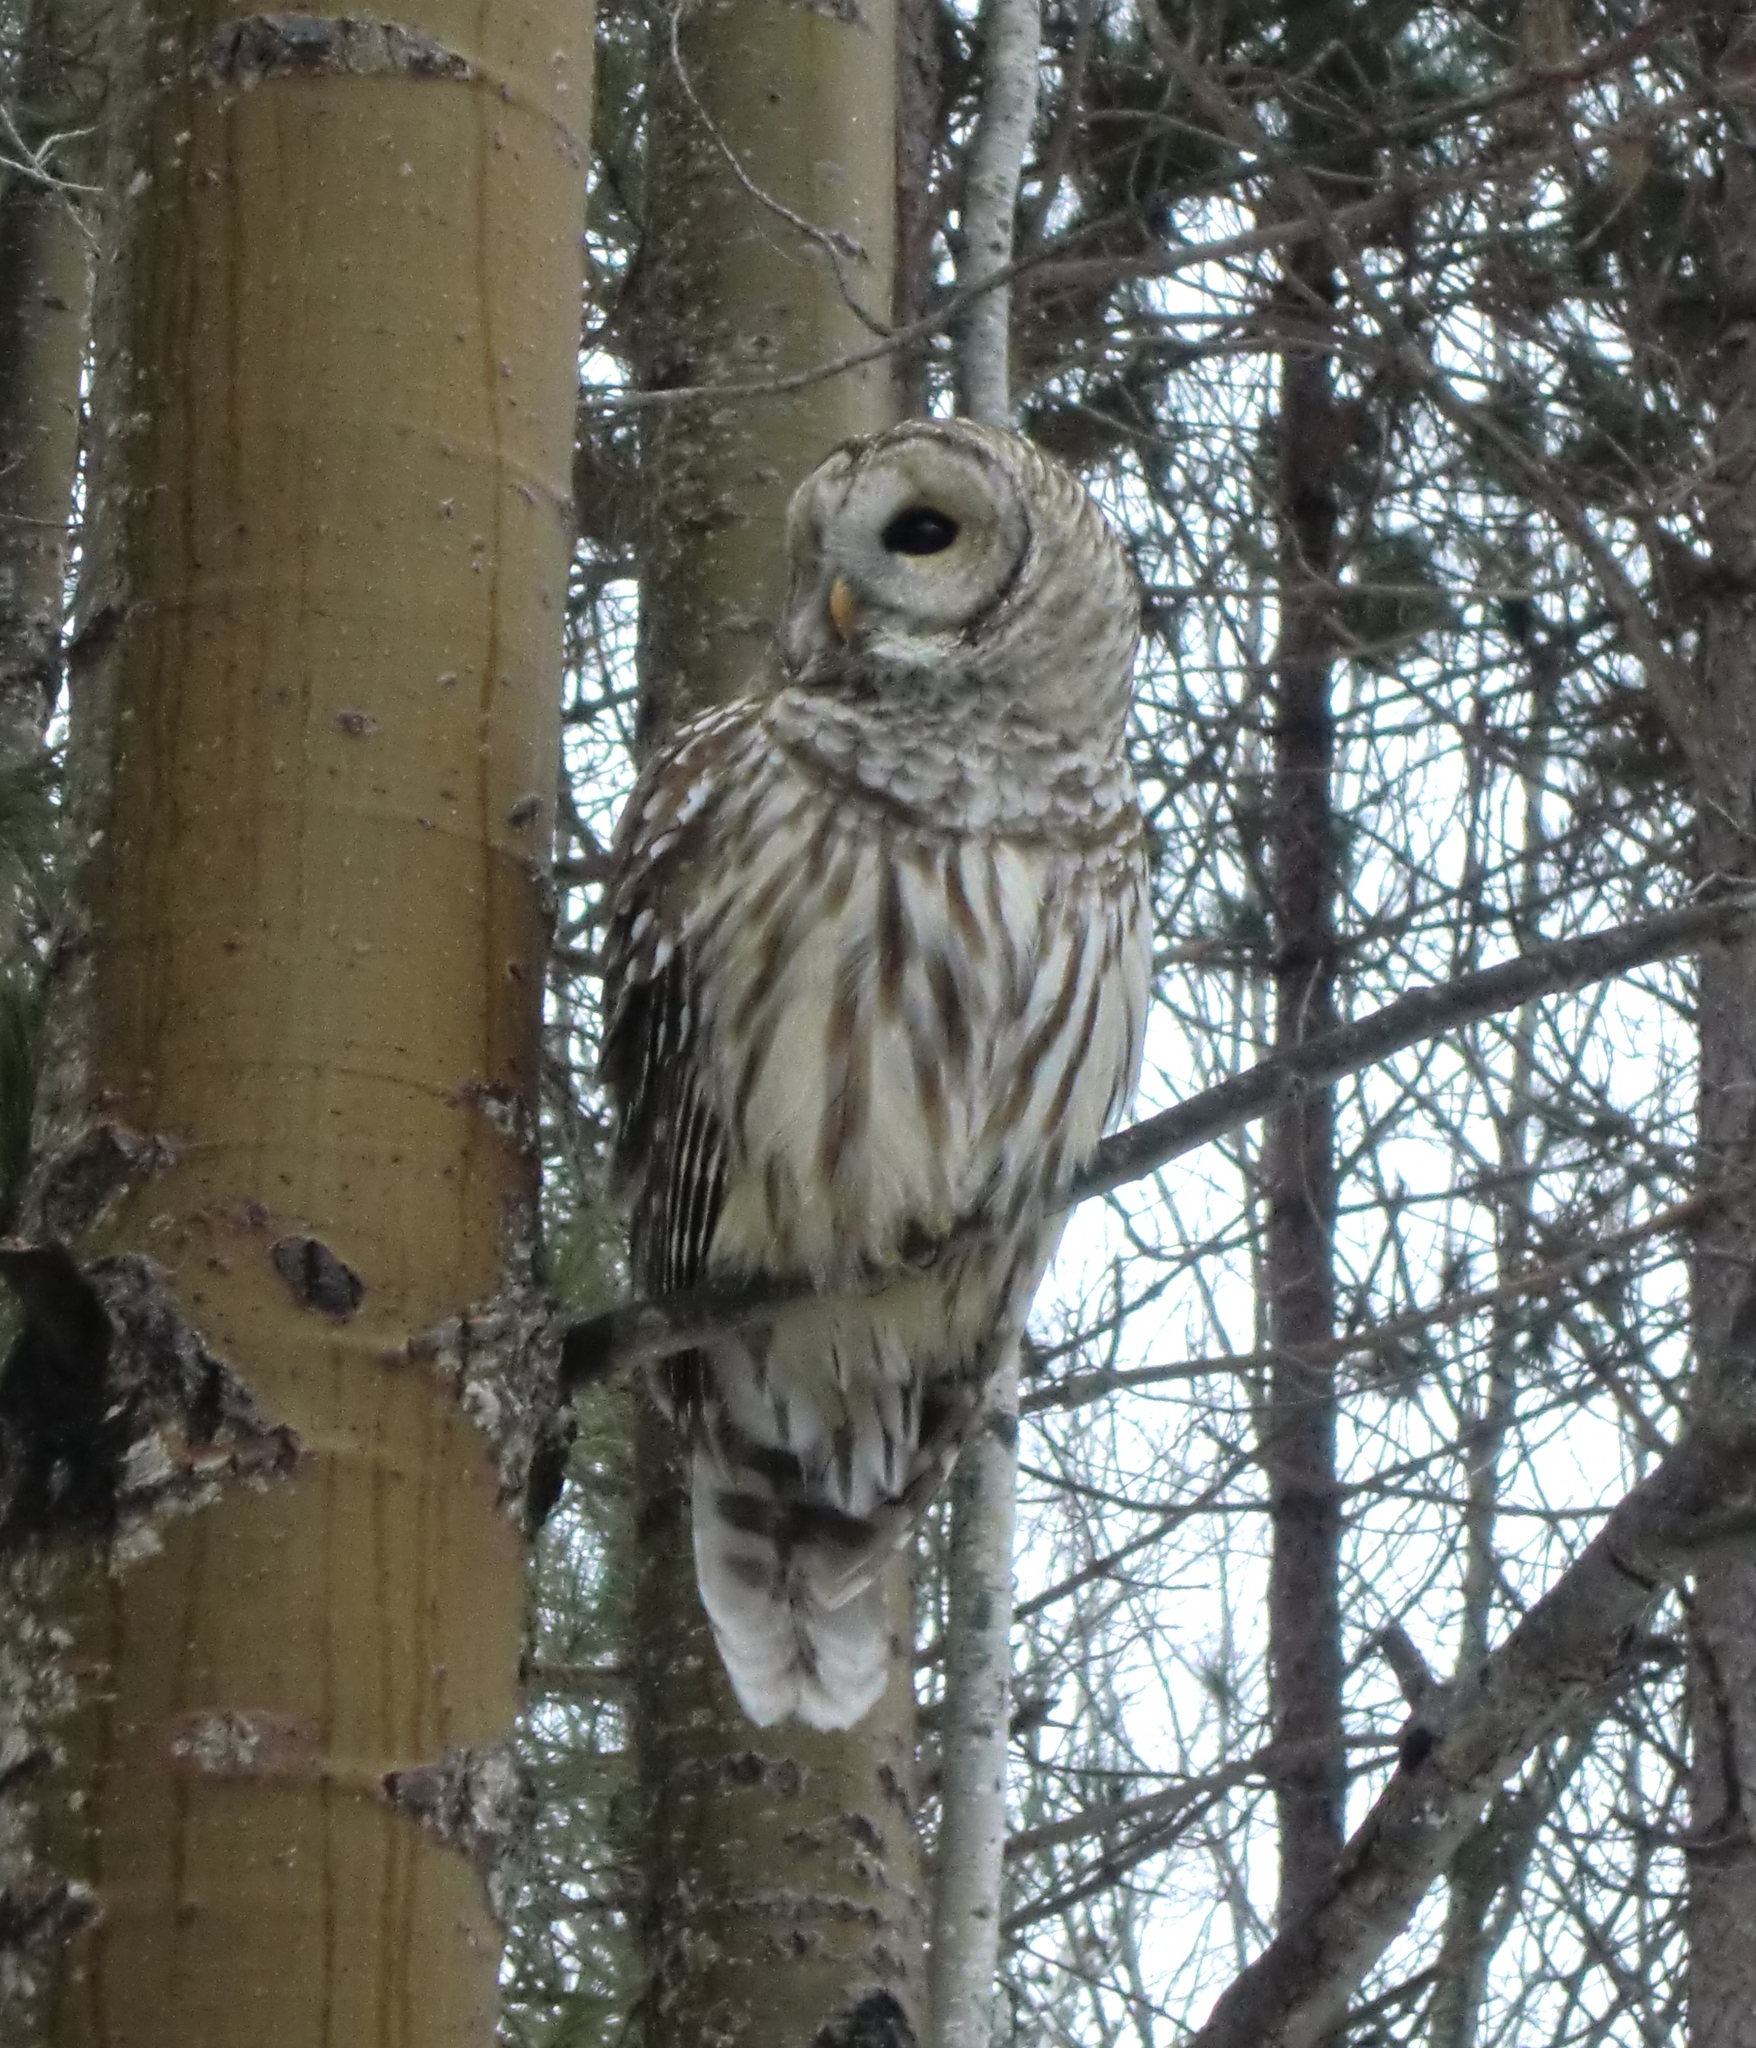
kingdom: Animalia
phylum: Chordata
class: Aves
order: Strigiformes
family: Strigidae
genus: Strix
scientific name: Strix varia
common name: Barred owl
